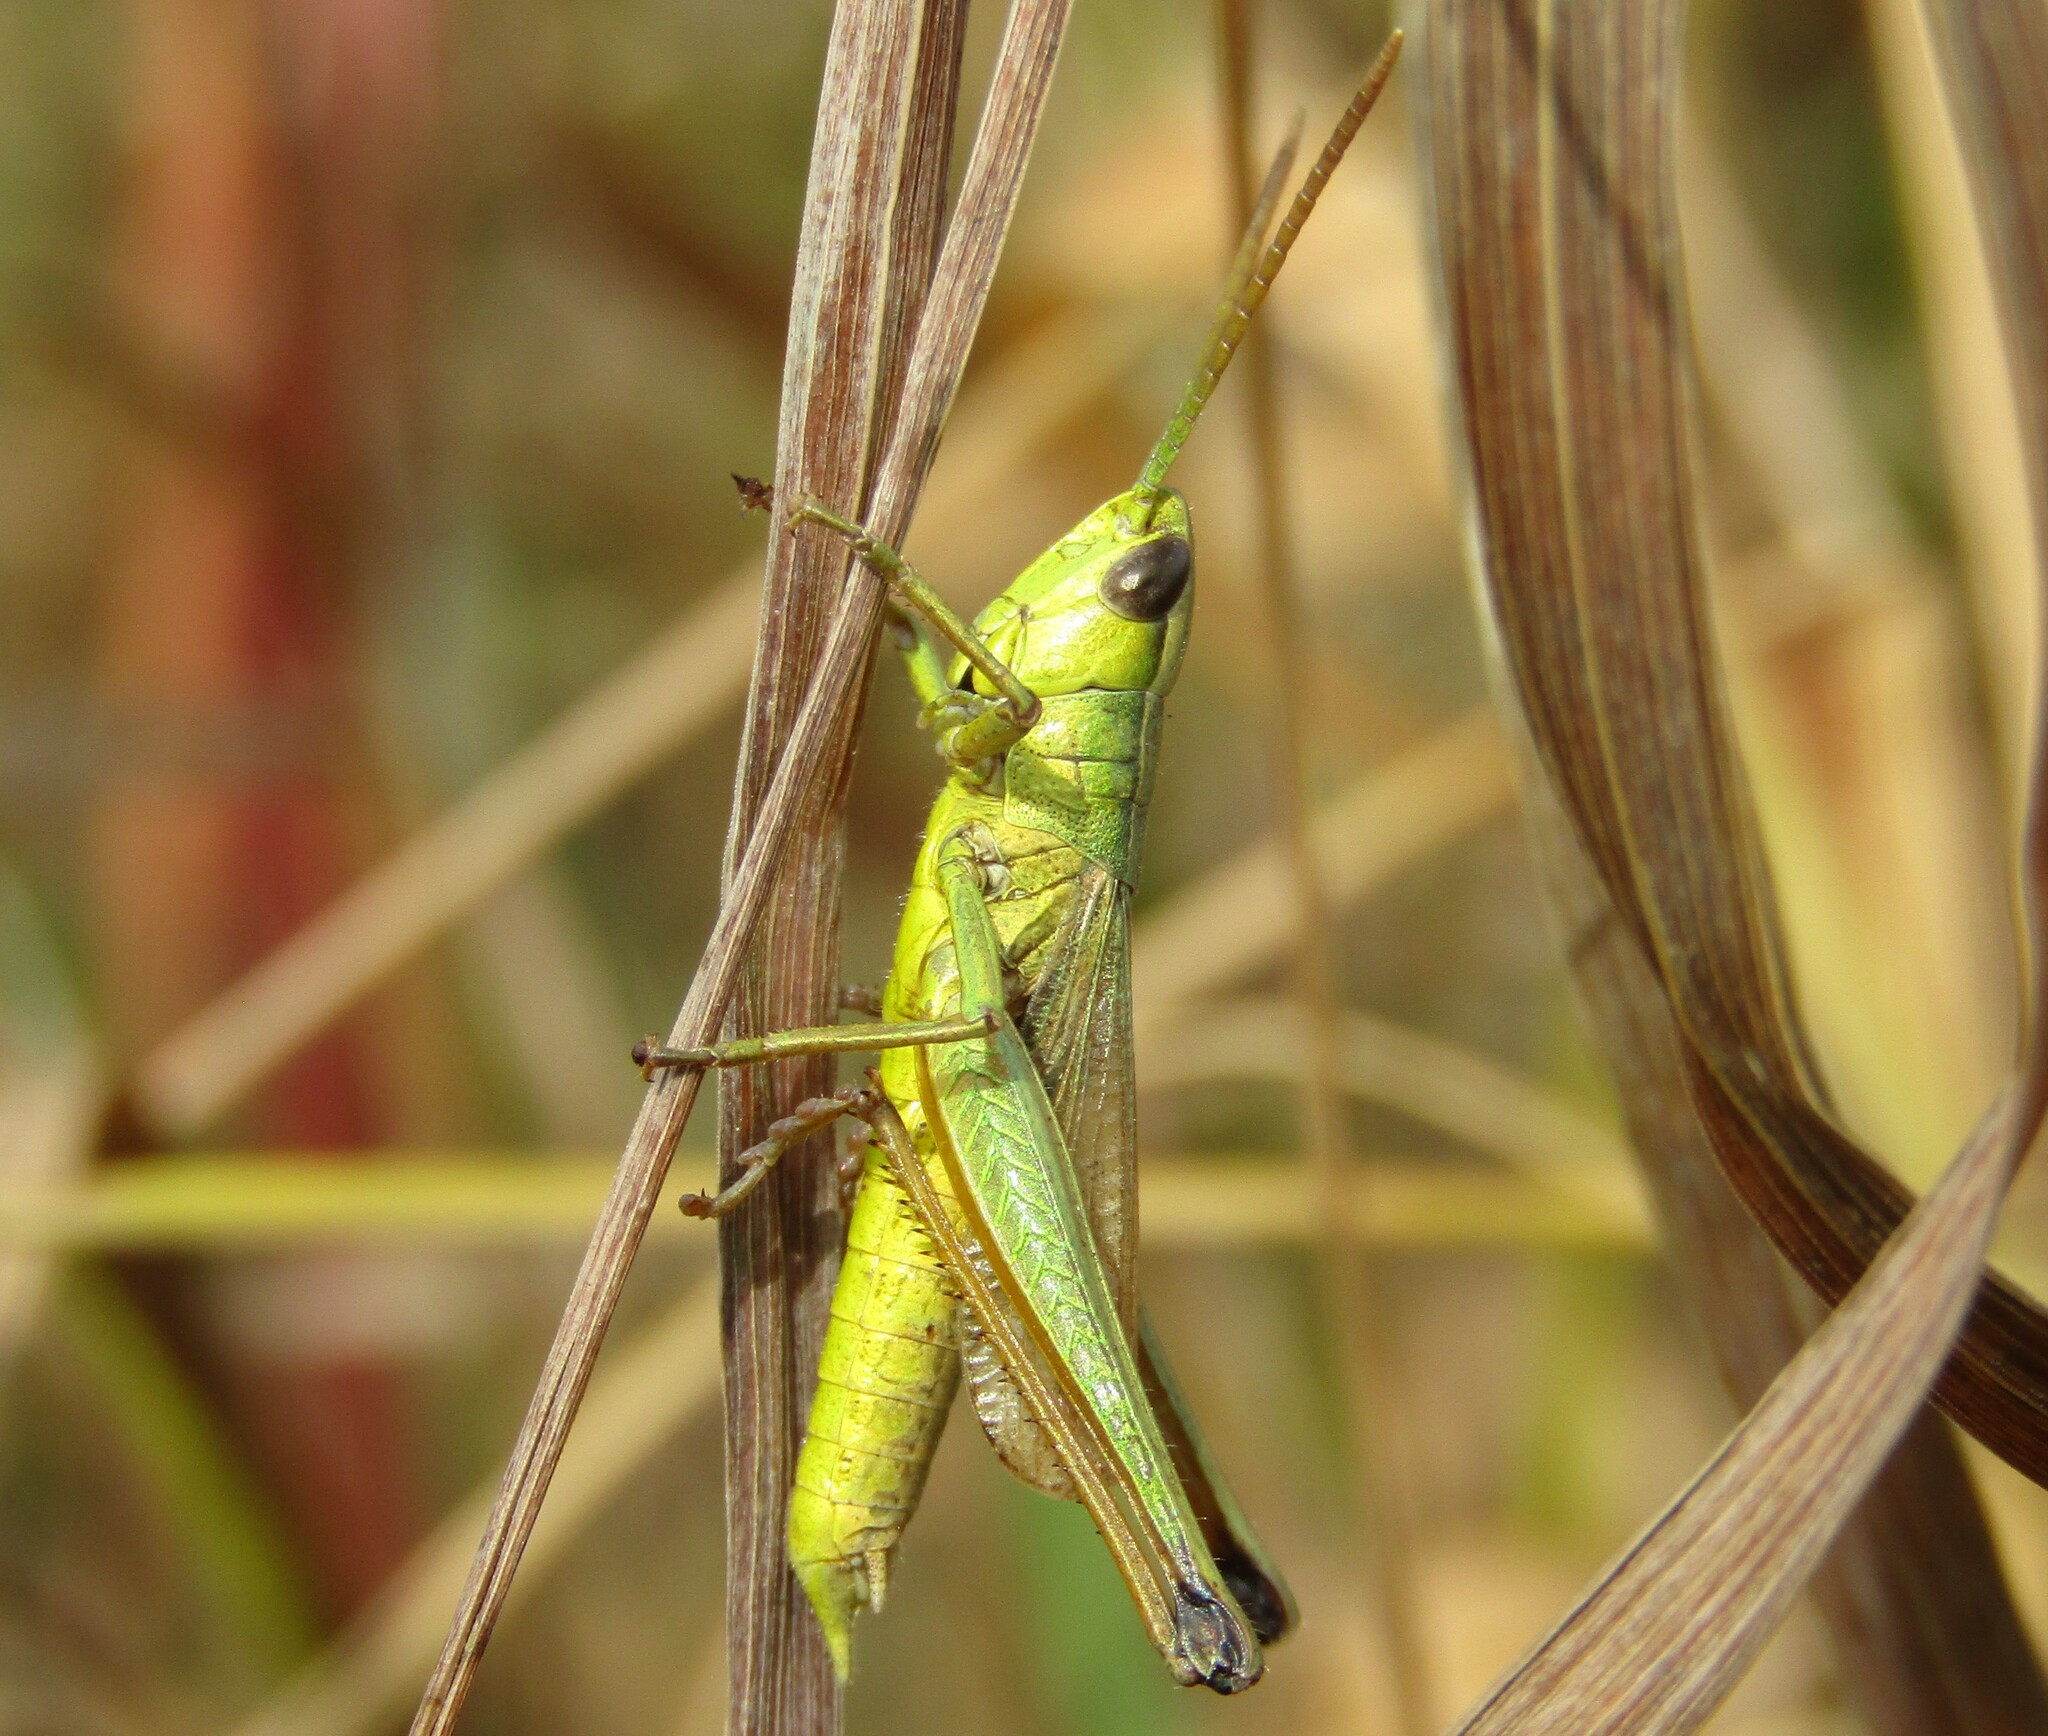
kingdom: Animalia
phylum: Arthropoda
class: Insecta
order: Orthoptera
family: Acrididae
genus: Chrysochraon
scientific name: Chrysochraon dispar
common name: Large gold grasshopper
